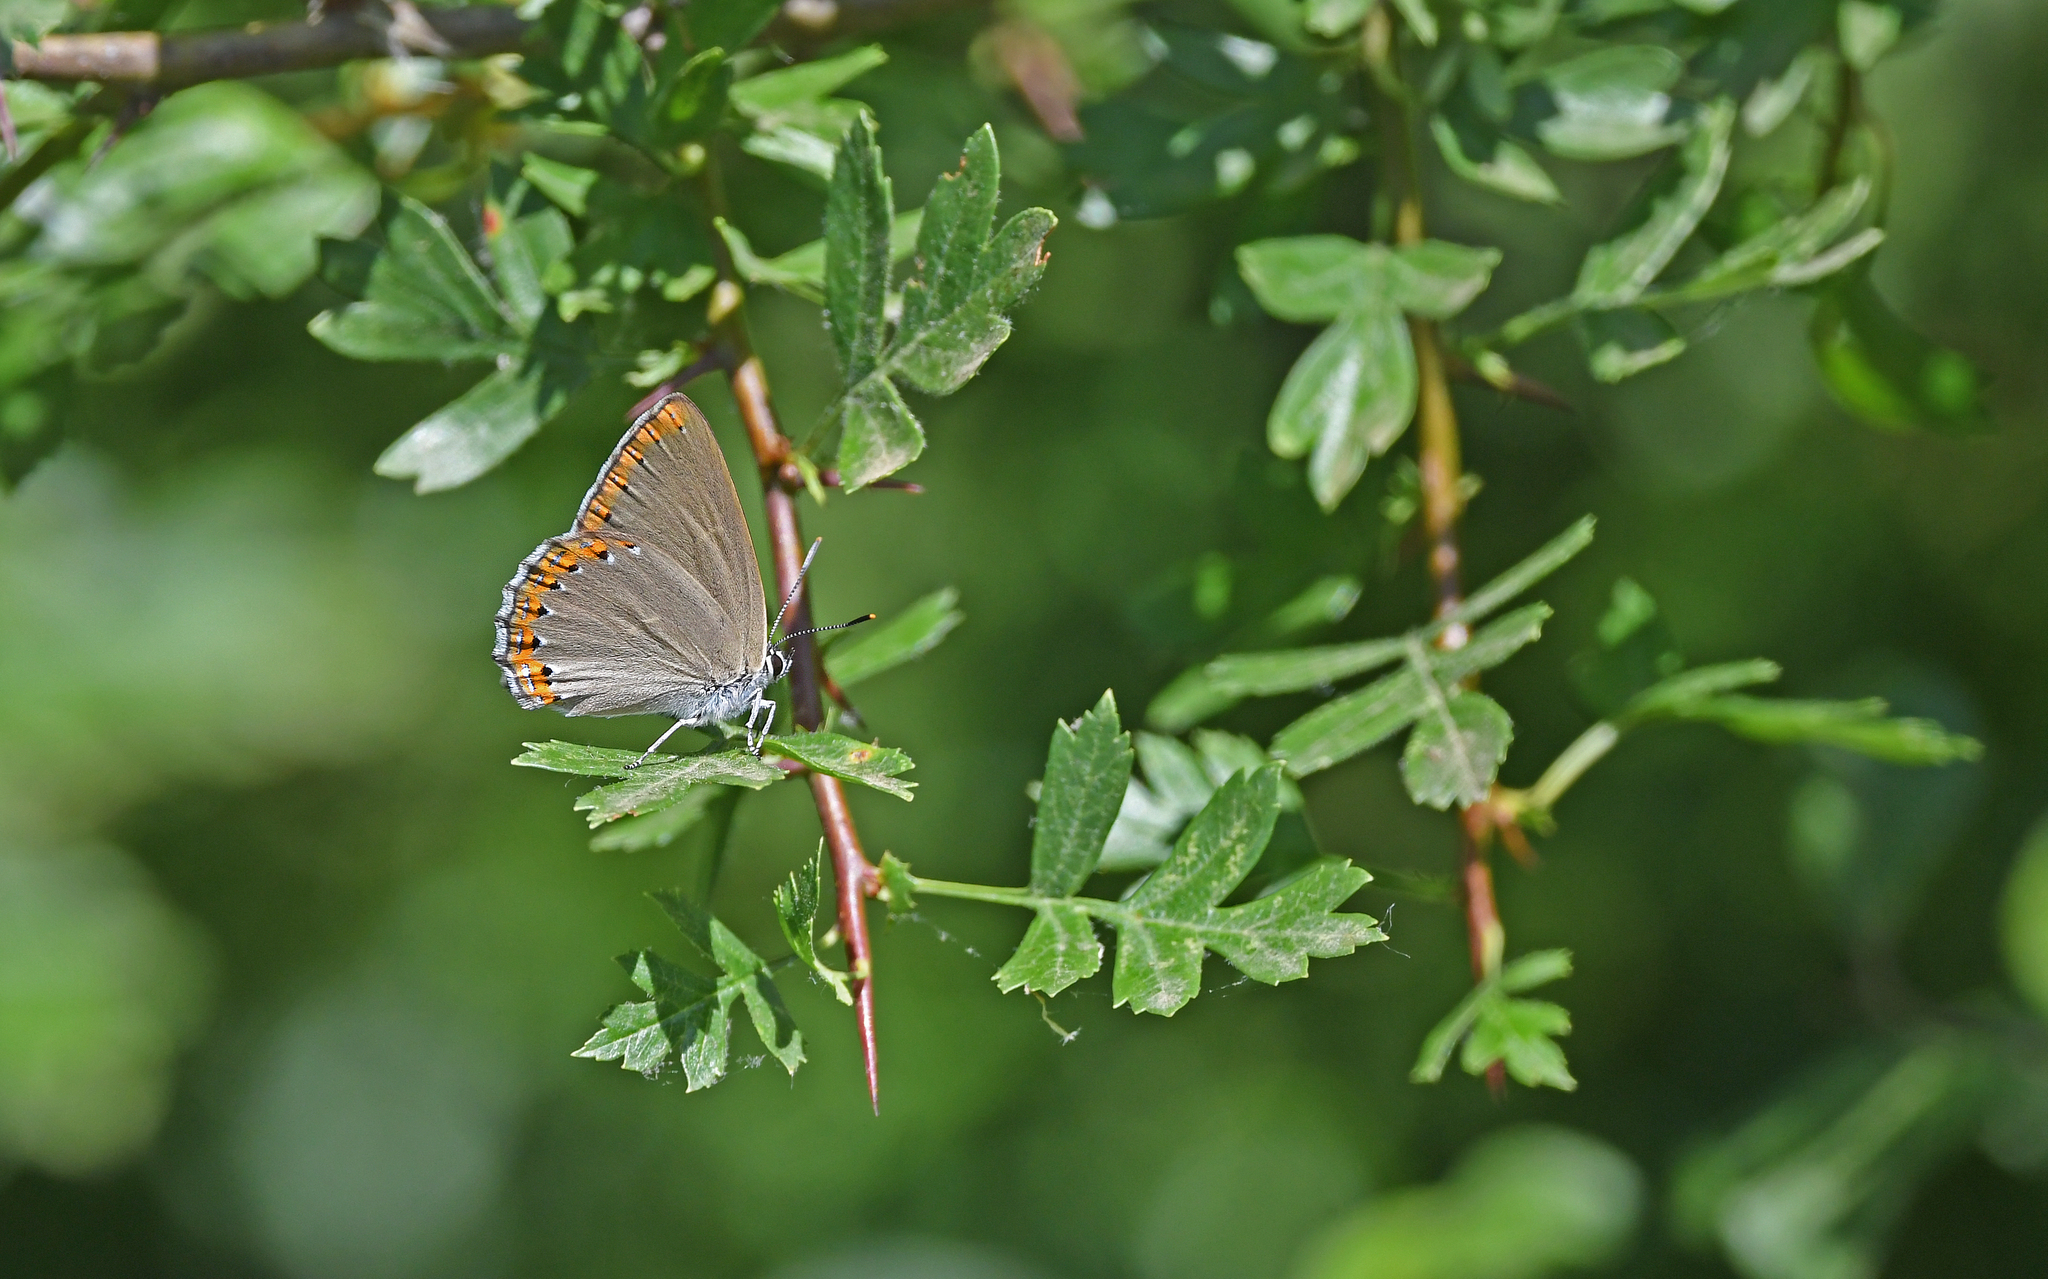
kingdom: Animalia
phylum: Arthropoda
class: Insecta
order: Lepidoptera
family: Lycaenidae
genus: Laeosopis
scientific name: Laeosopis roboris
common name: Spanish purple hairstreak
